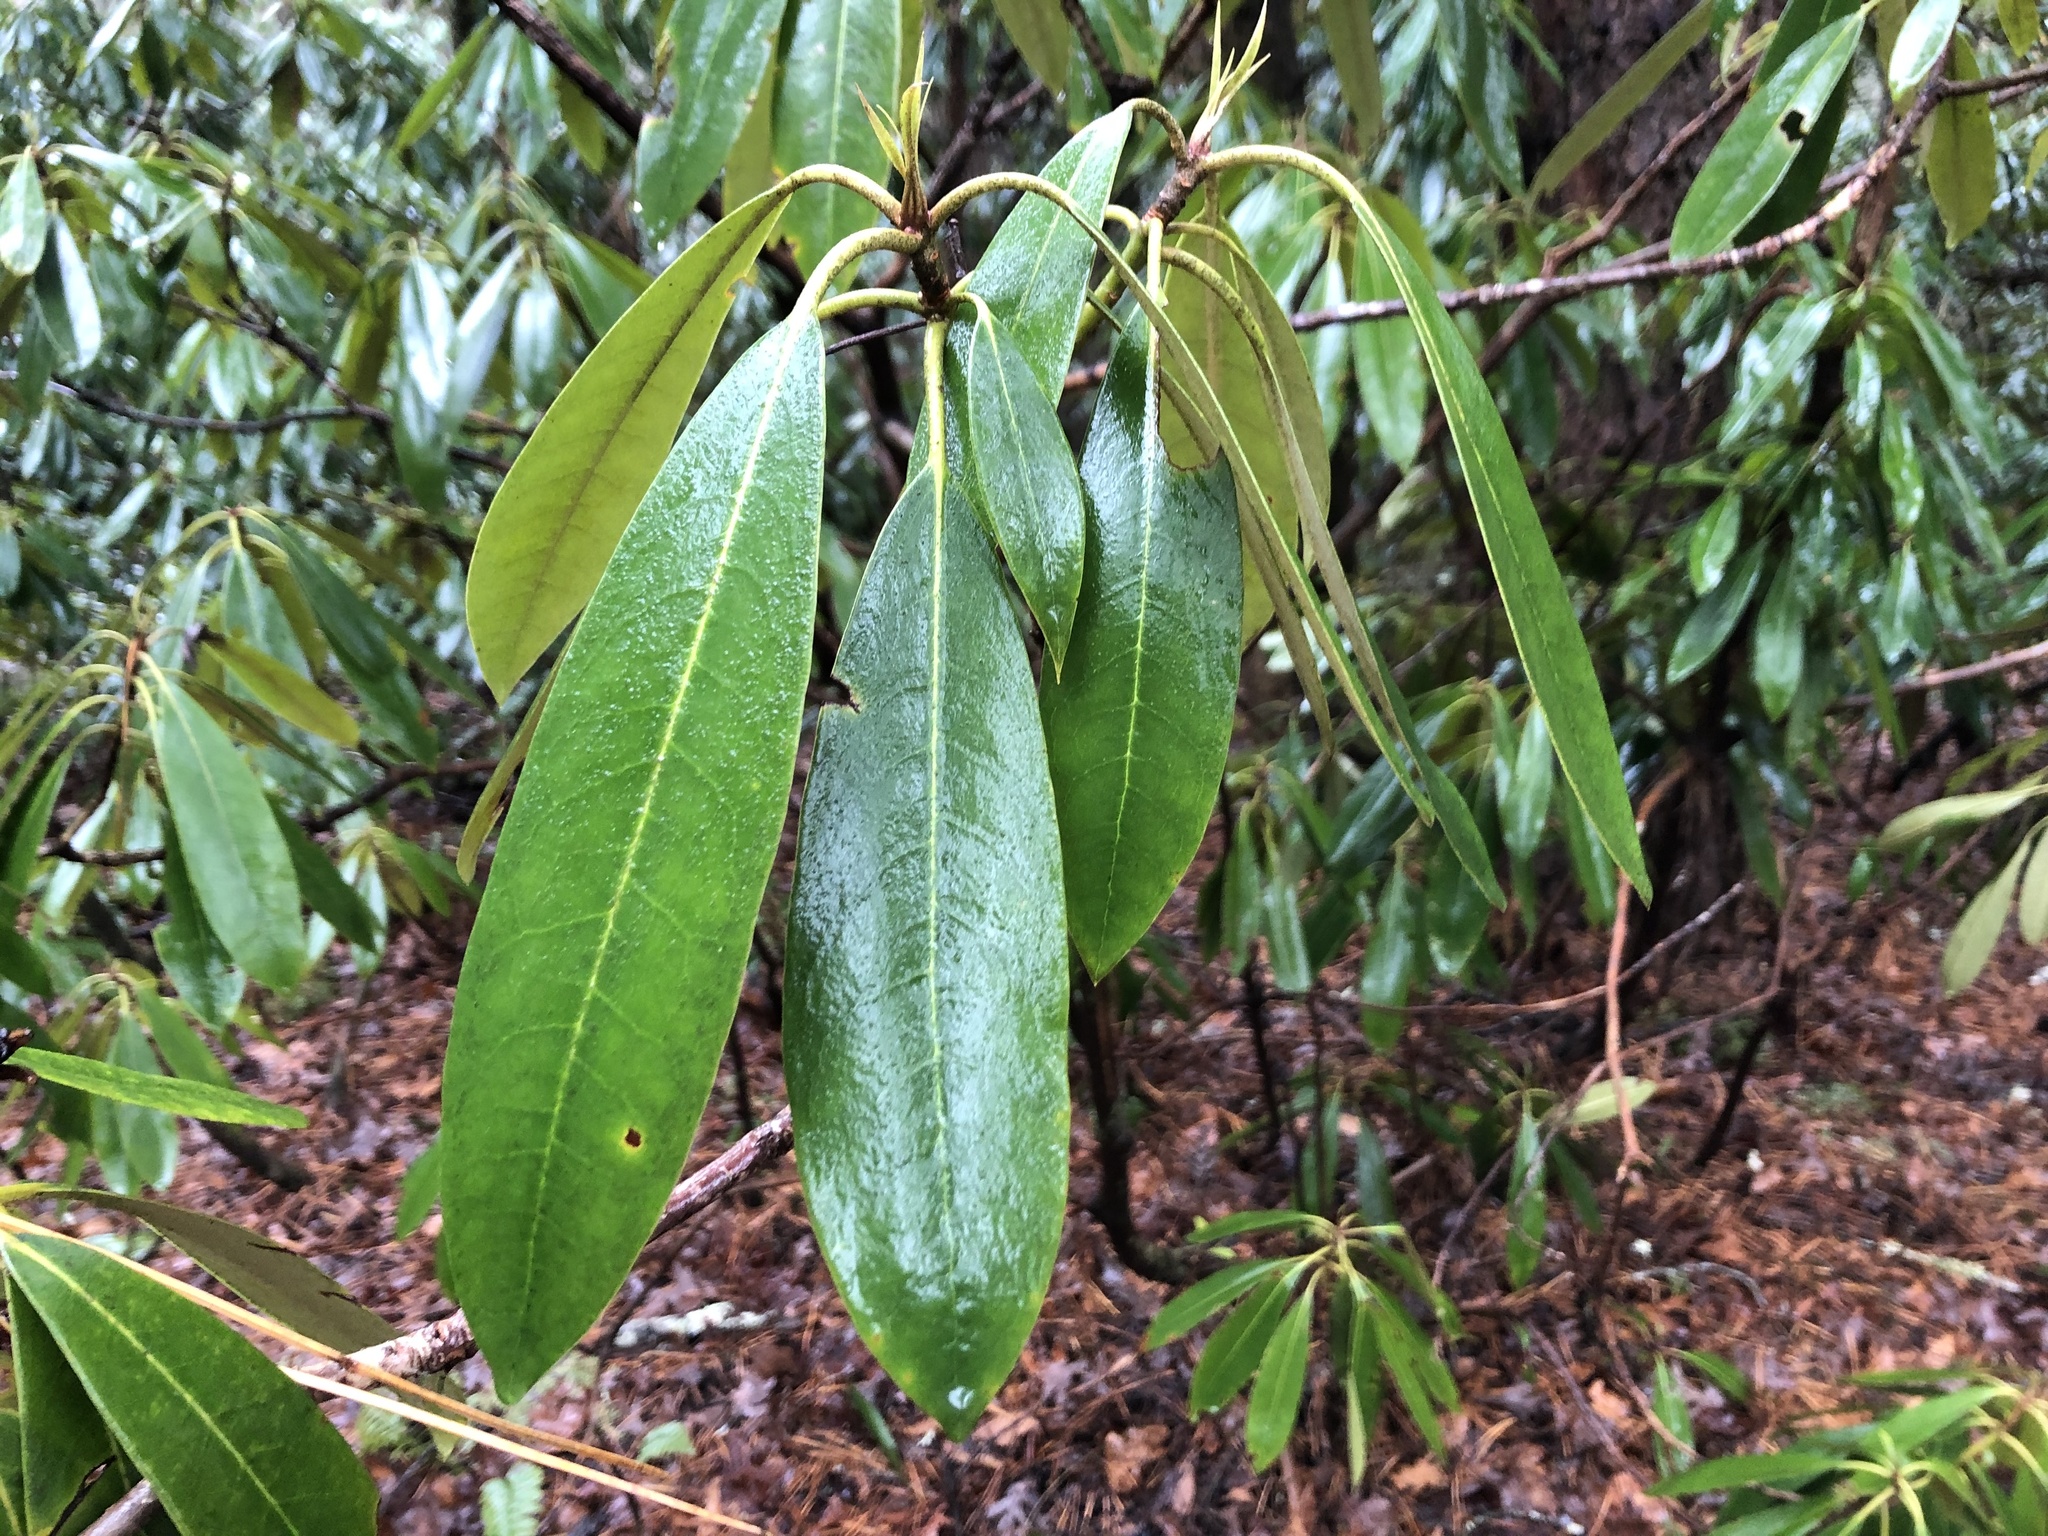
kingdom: Plantae
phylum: Tracheophyta
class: Magnoliopsida
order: Ericales
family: Ericaceae
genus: Rhododendron
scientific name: Rhododendron maximum
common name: Great rhododendron
